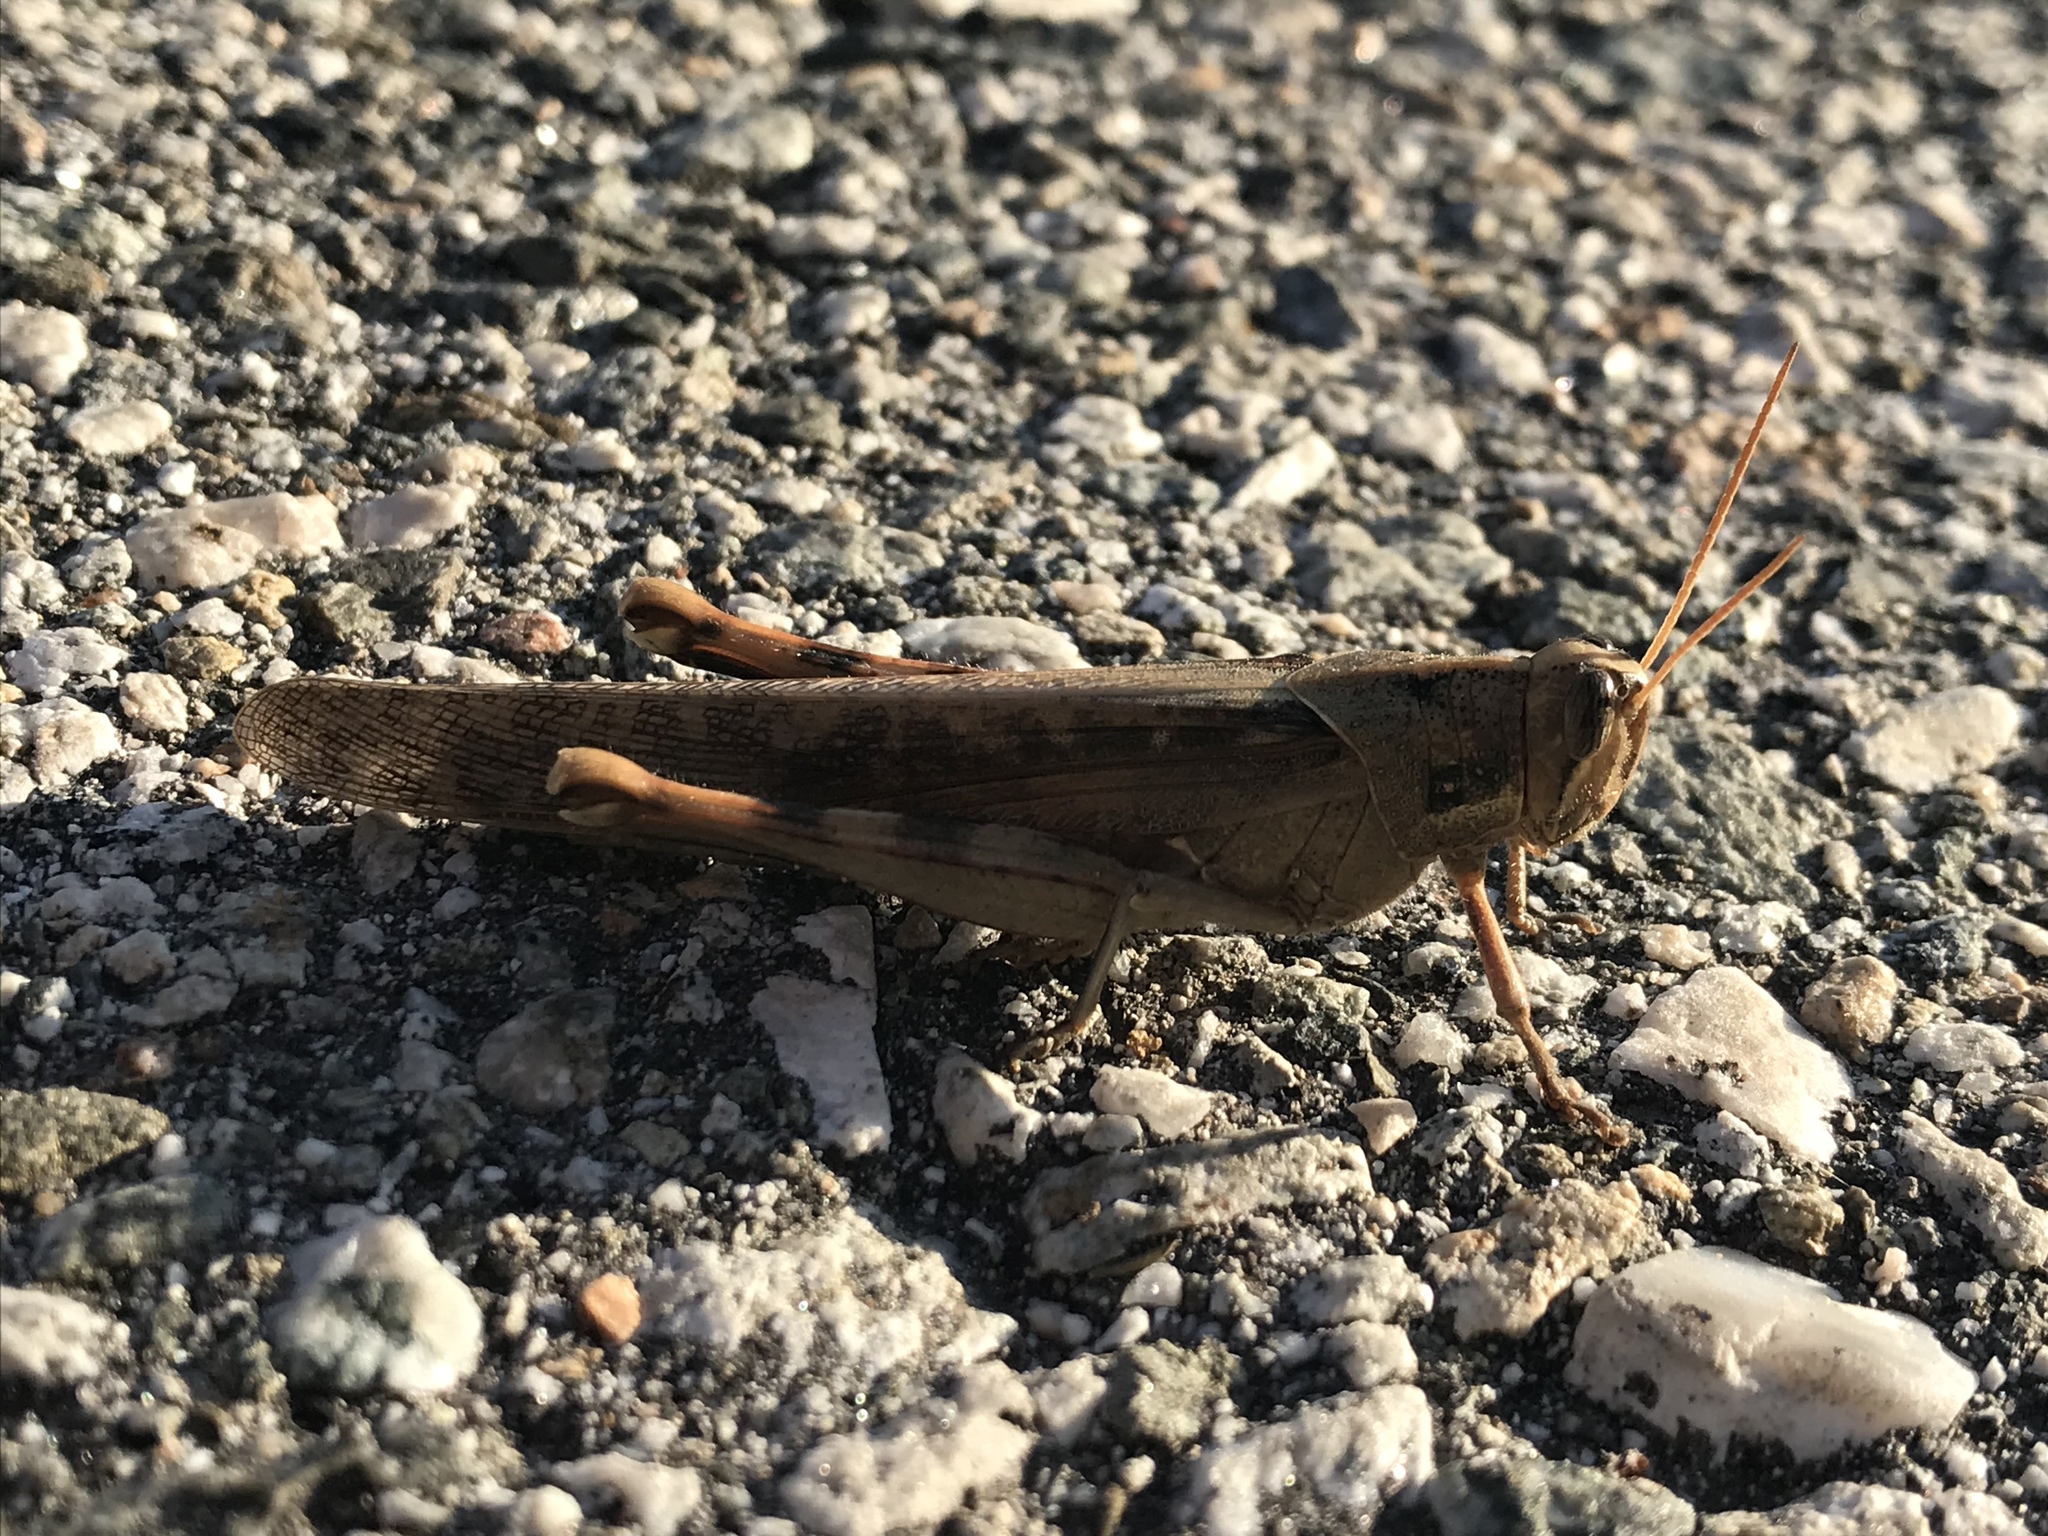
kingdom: Animalia
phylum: Arthropoda
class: Insecta
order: Orthoptera
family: Acrididae
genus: Schistocerca
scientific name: Schistocerca nitens
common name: Vagrant grasshopper
